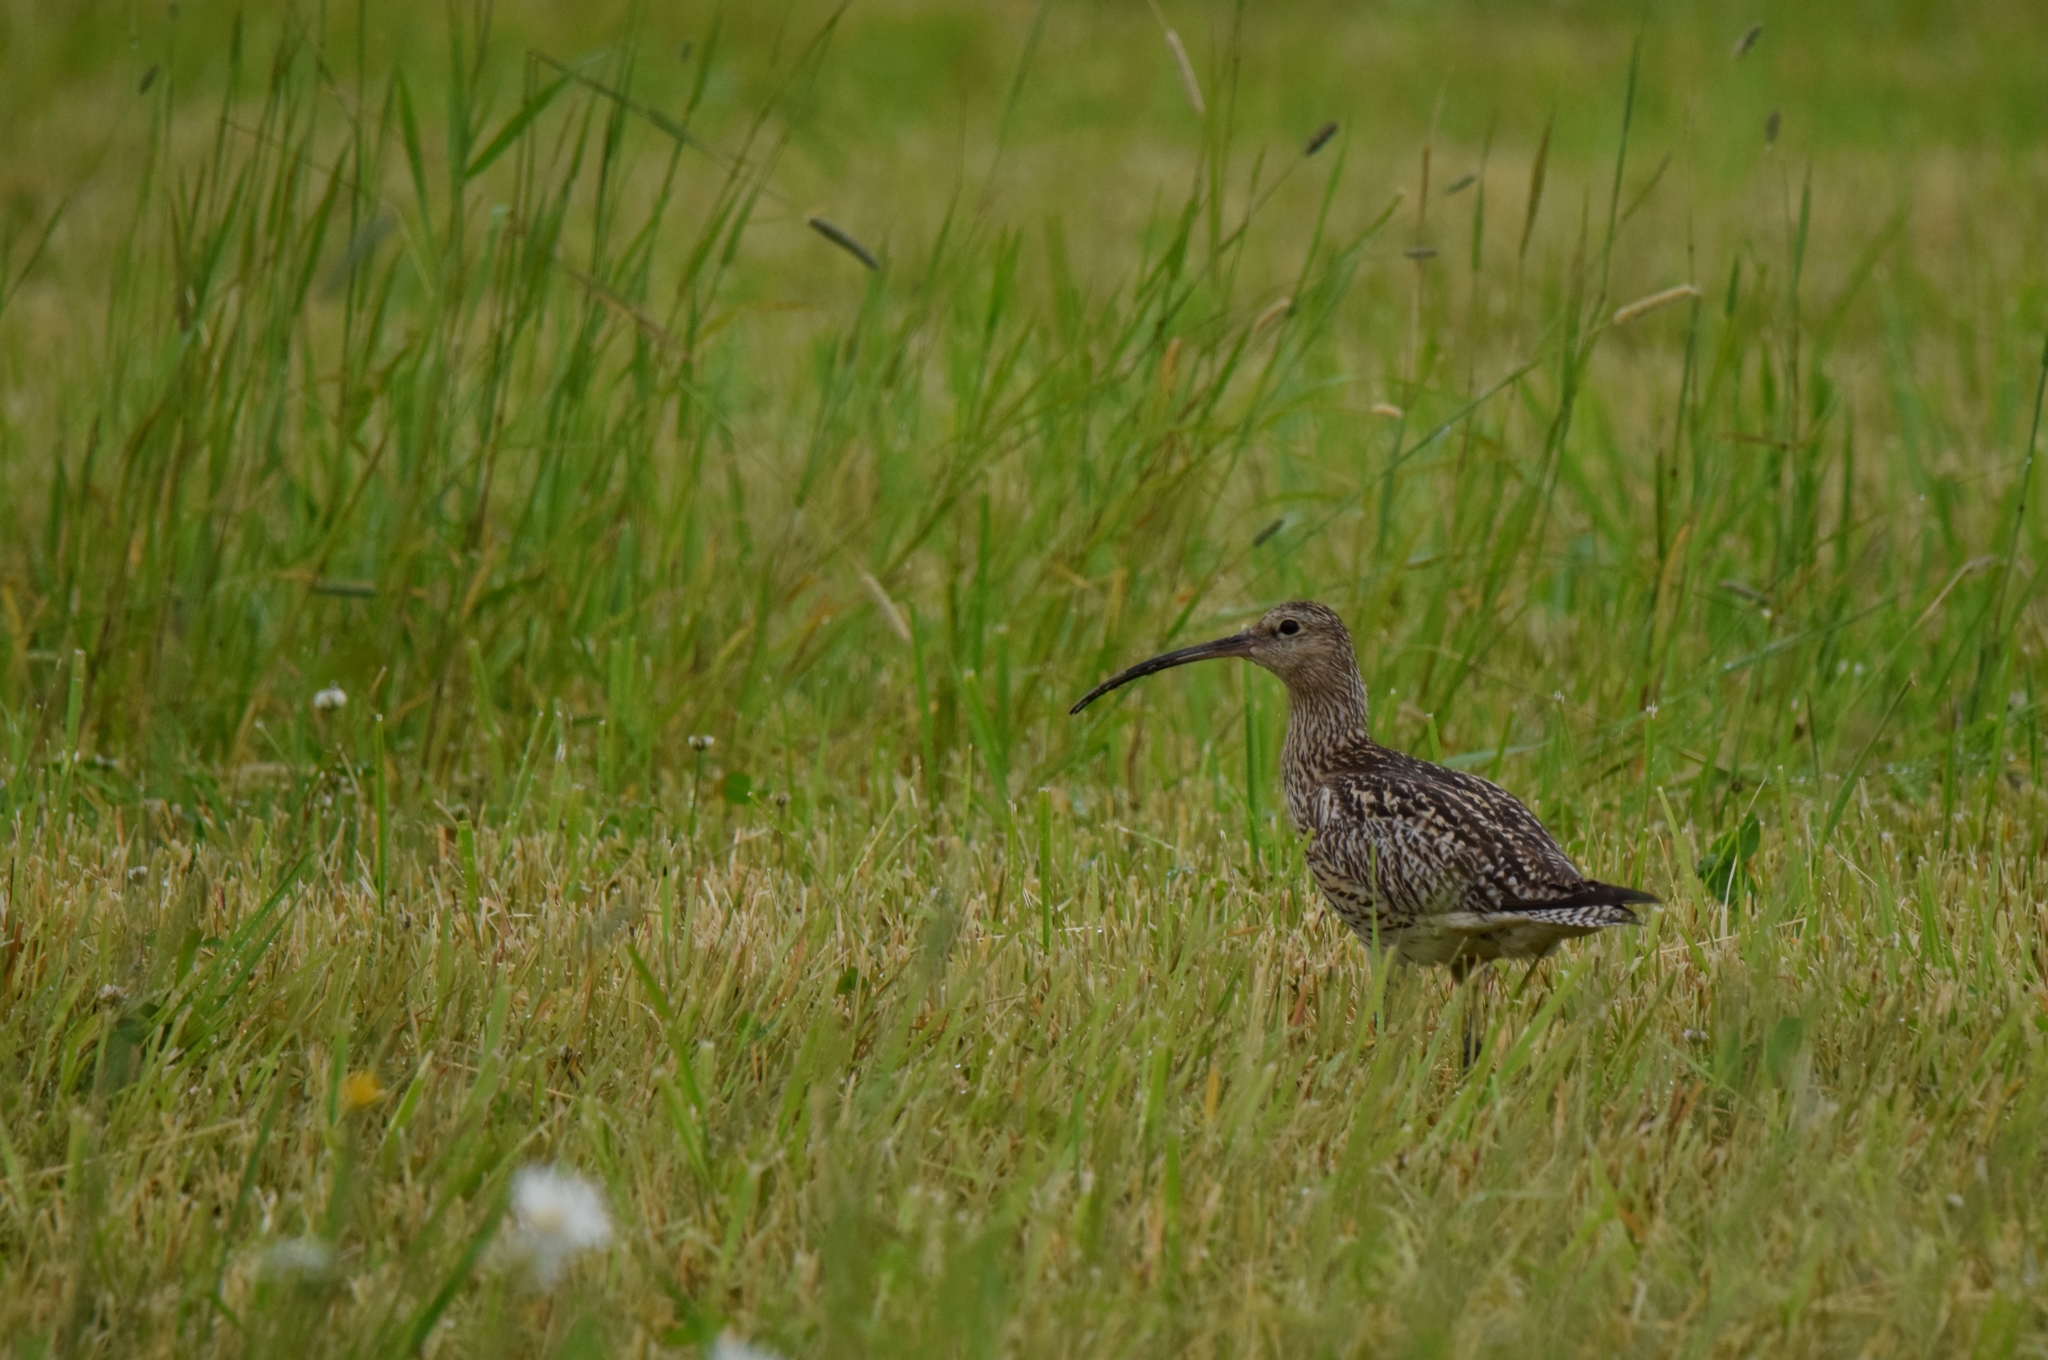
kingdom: Animalia
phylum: Chordata
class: Aves
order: Charadriiformes
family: Scolopacidae
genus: Numenius
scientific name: Numenius arquata
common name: Eurasian curlew
